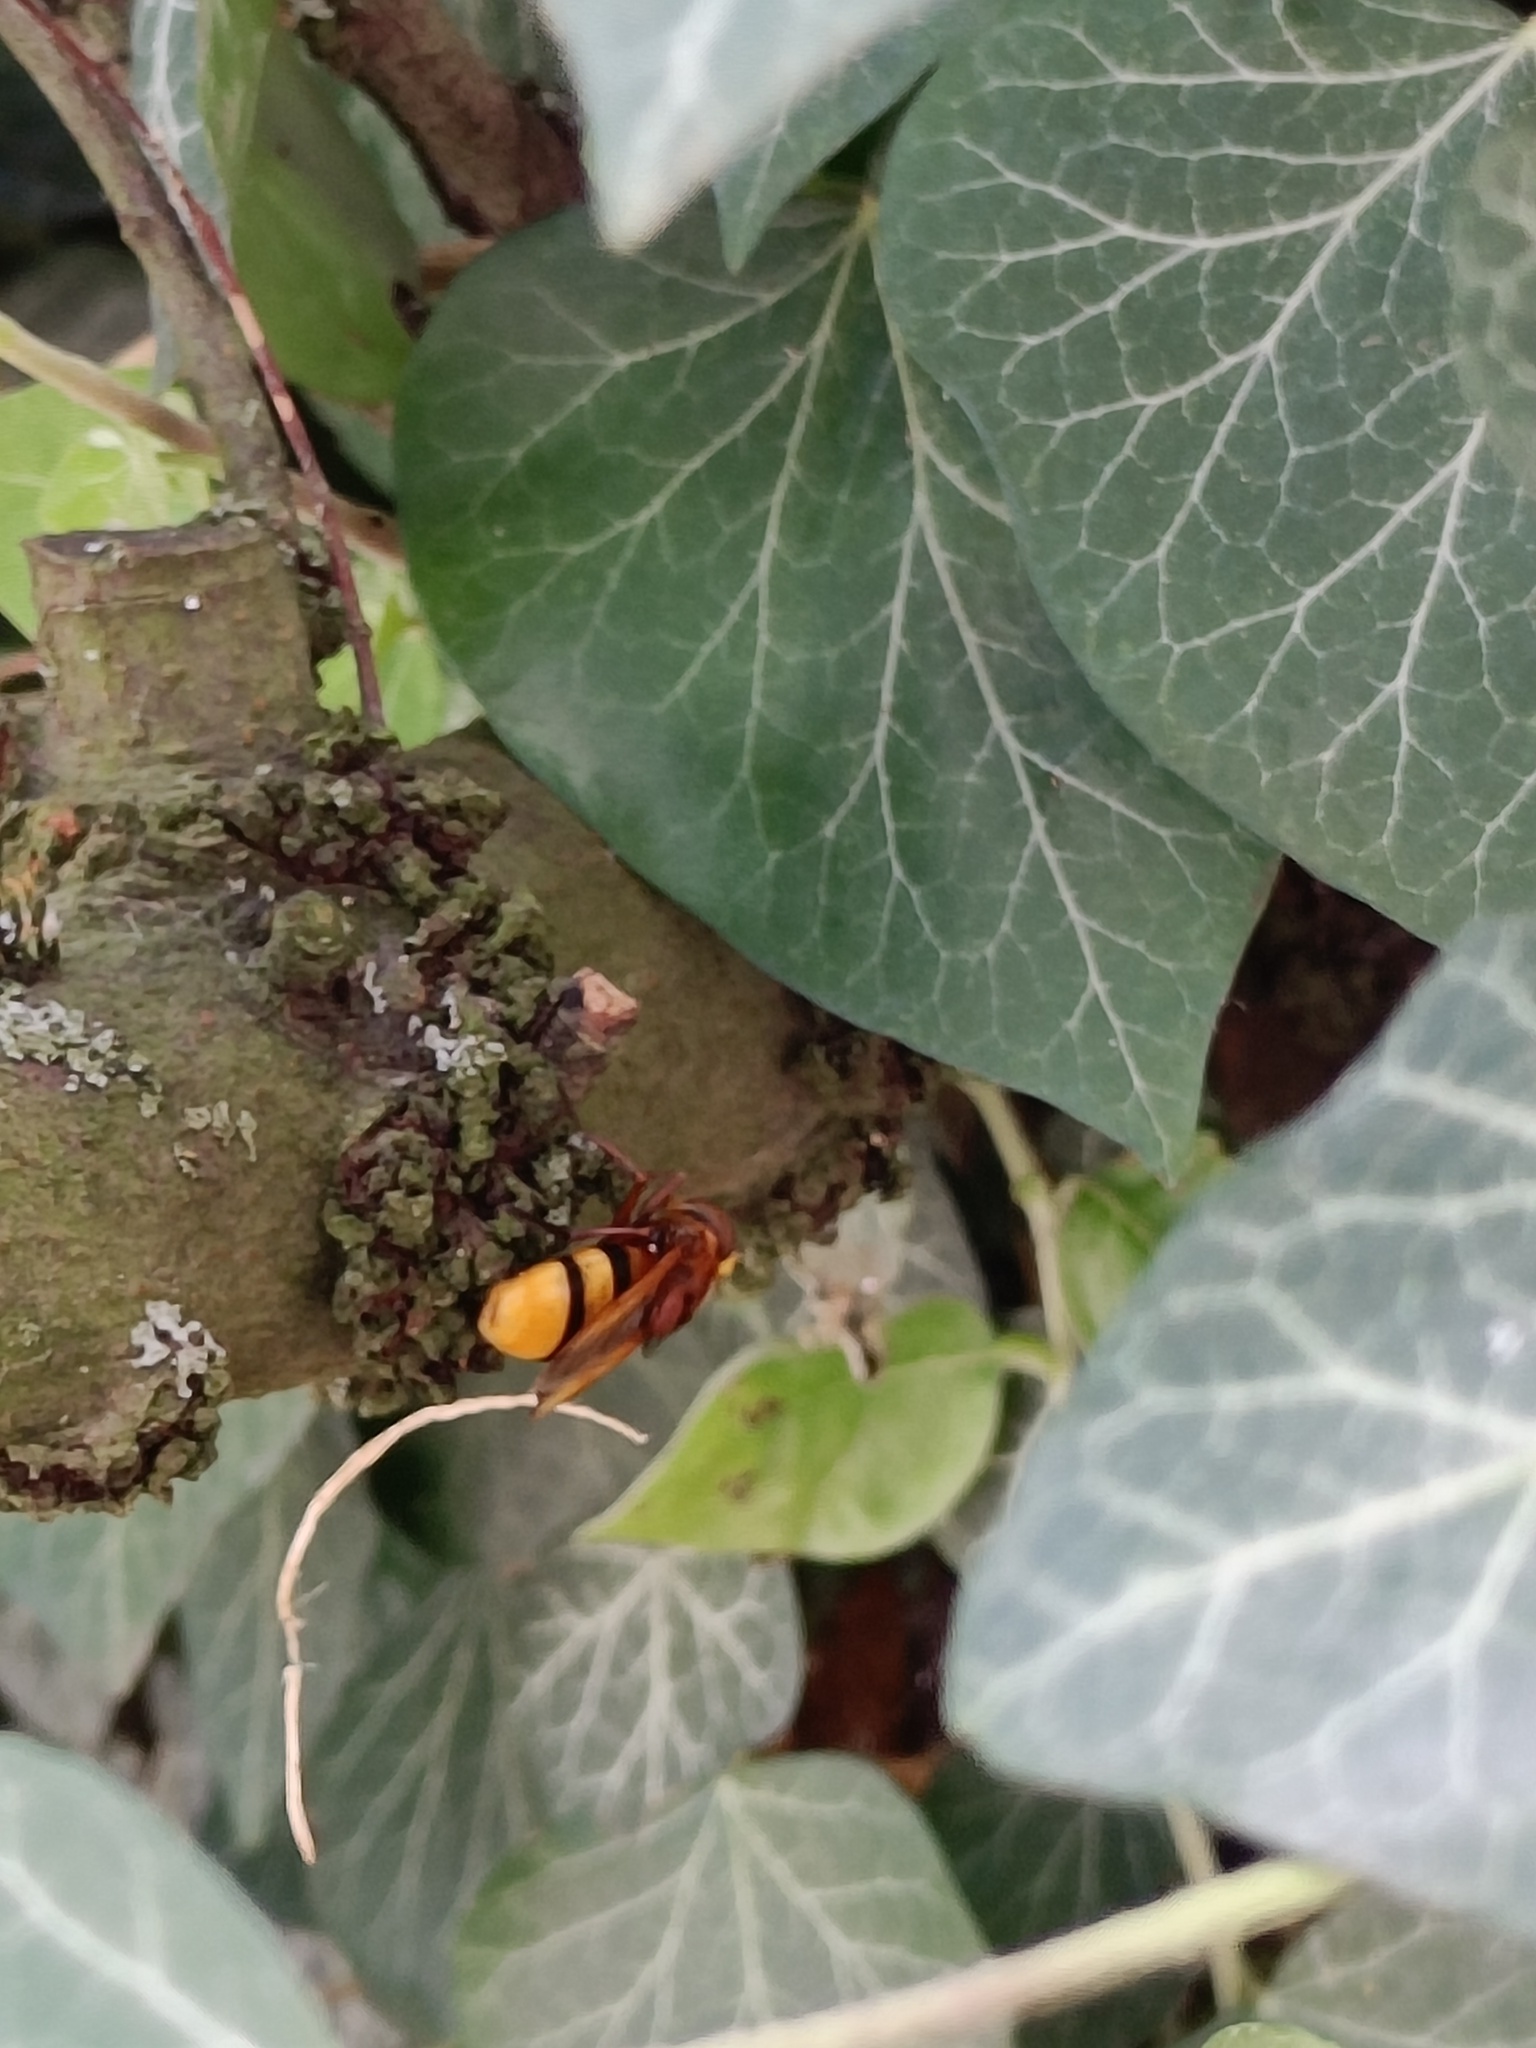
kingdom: Animalia
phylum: Arthropoda
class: Insecta
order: Diptera
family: Syrphidae
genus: Volucella
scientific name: Volucella zonaria
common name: Hornet hoverfly
